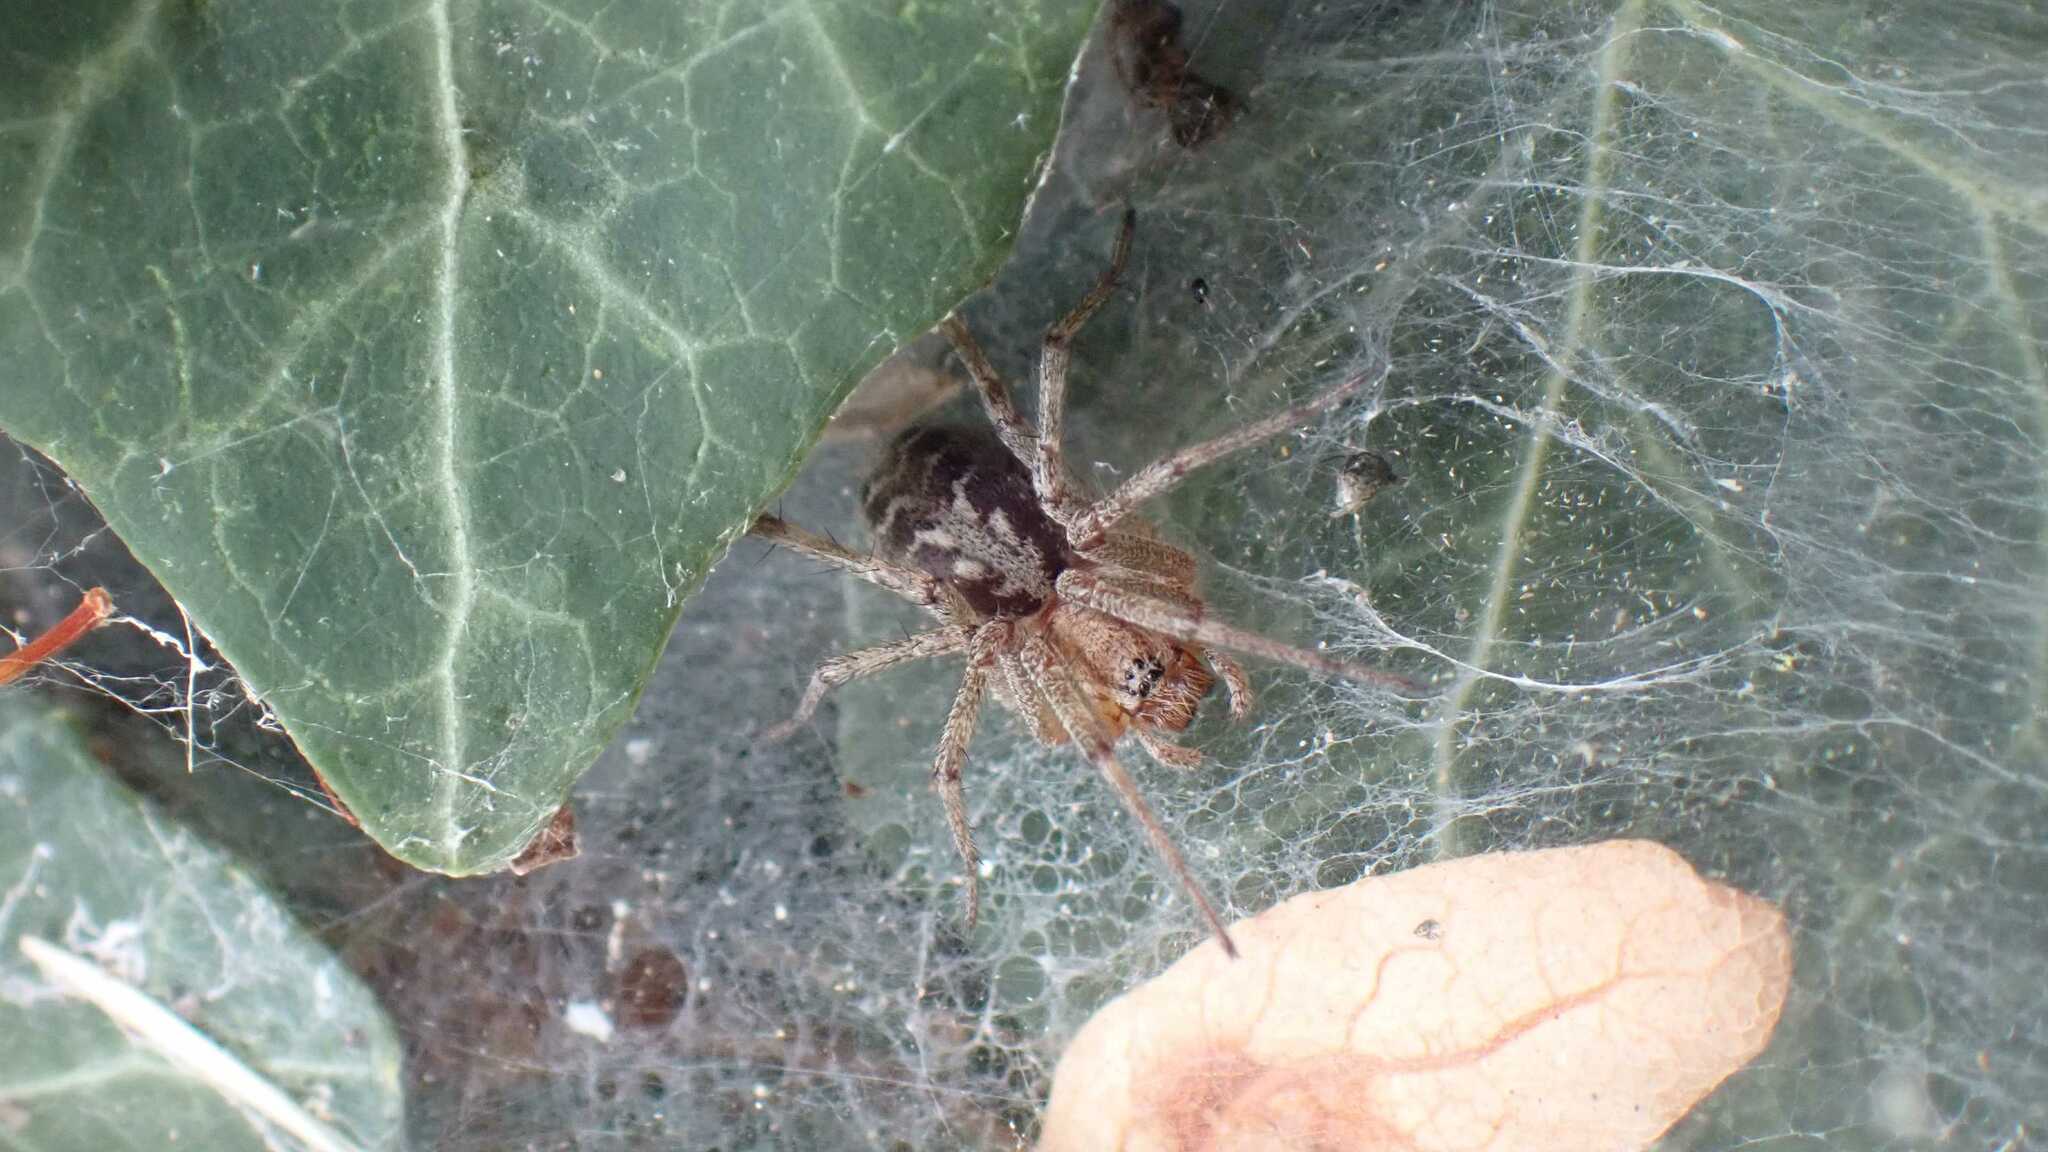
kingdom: Animalia
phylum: Arthropoda
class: Arachnida
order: Araneae
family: Agelenidae
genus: Agelena
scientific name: Agelena labyrinthica
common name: Labyrinth spider
